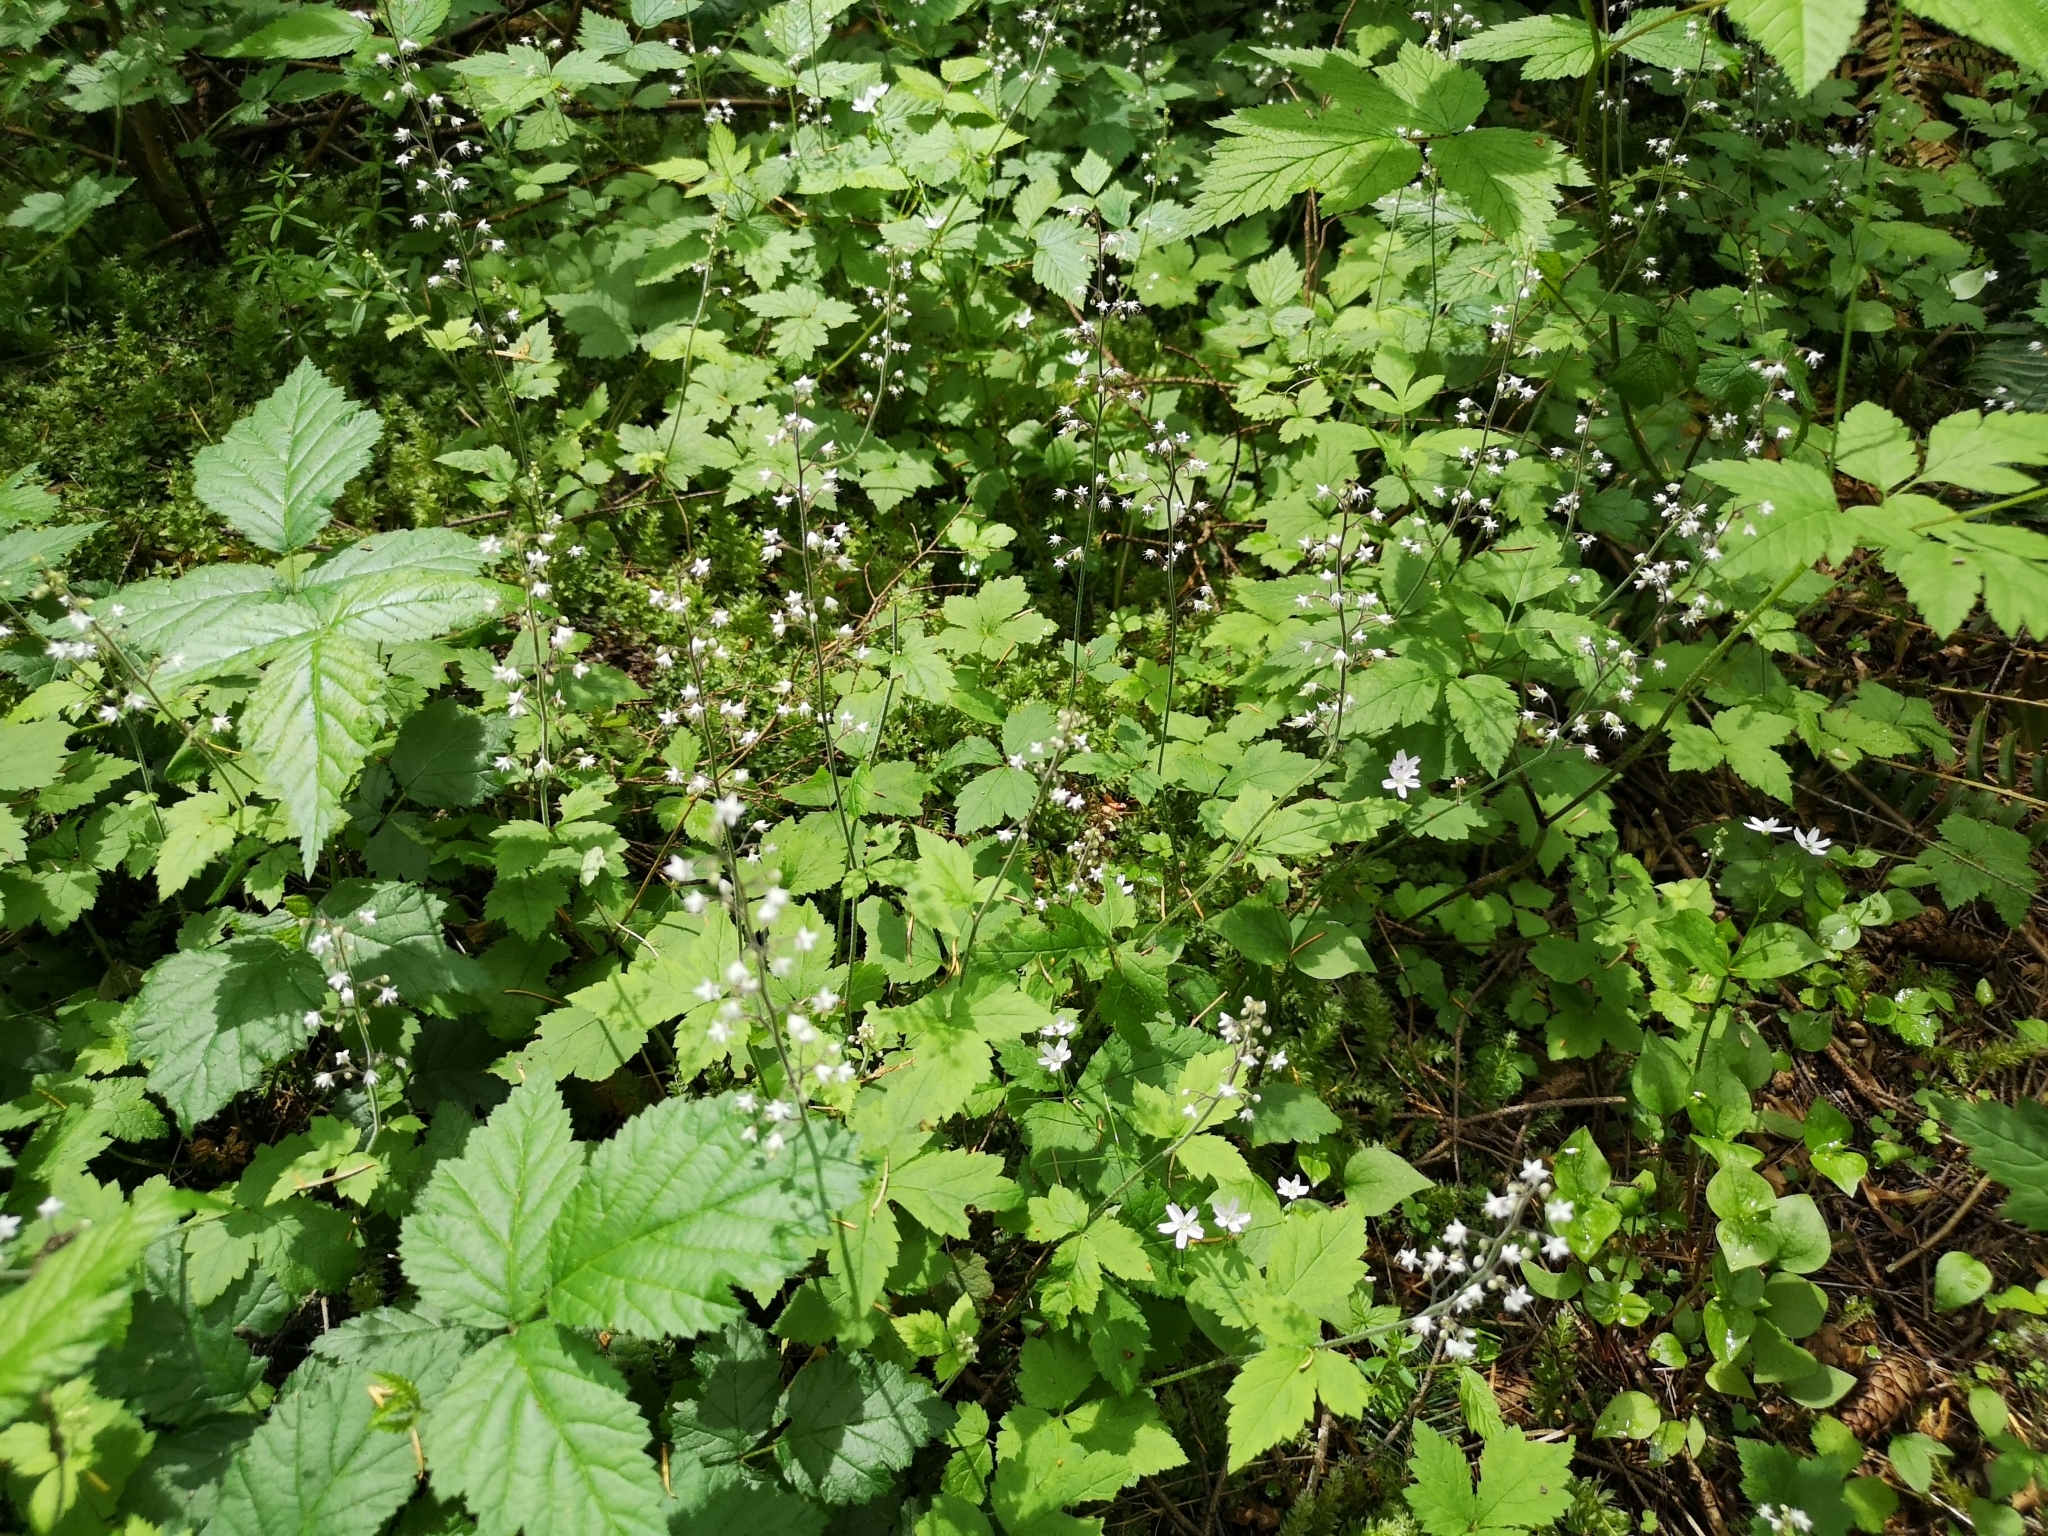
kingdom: Plantae
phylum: Tracheophyta
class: Magnoliopsida
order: Saxifragales
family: Saxifragaceae
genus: Tiarella
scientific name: Tiarella trifoliata
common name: Sugar-scoop
